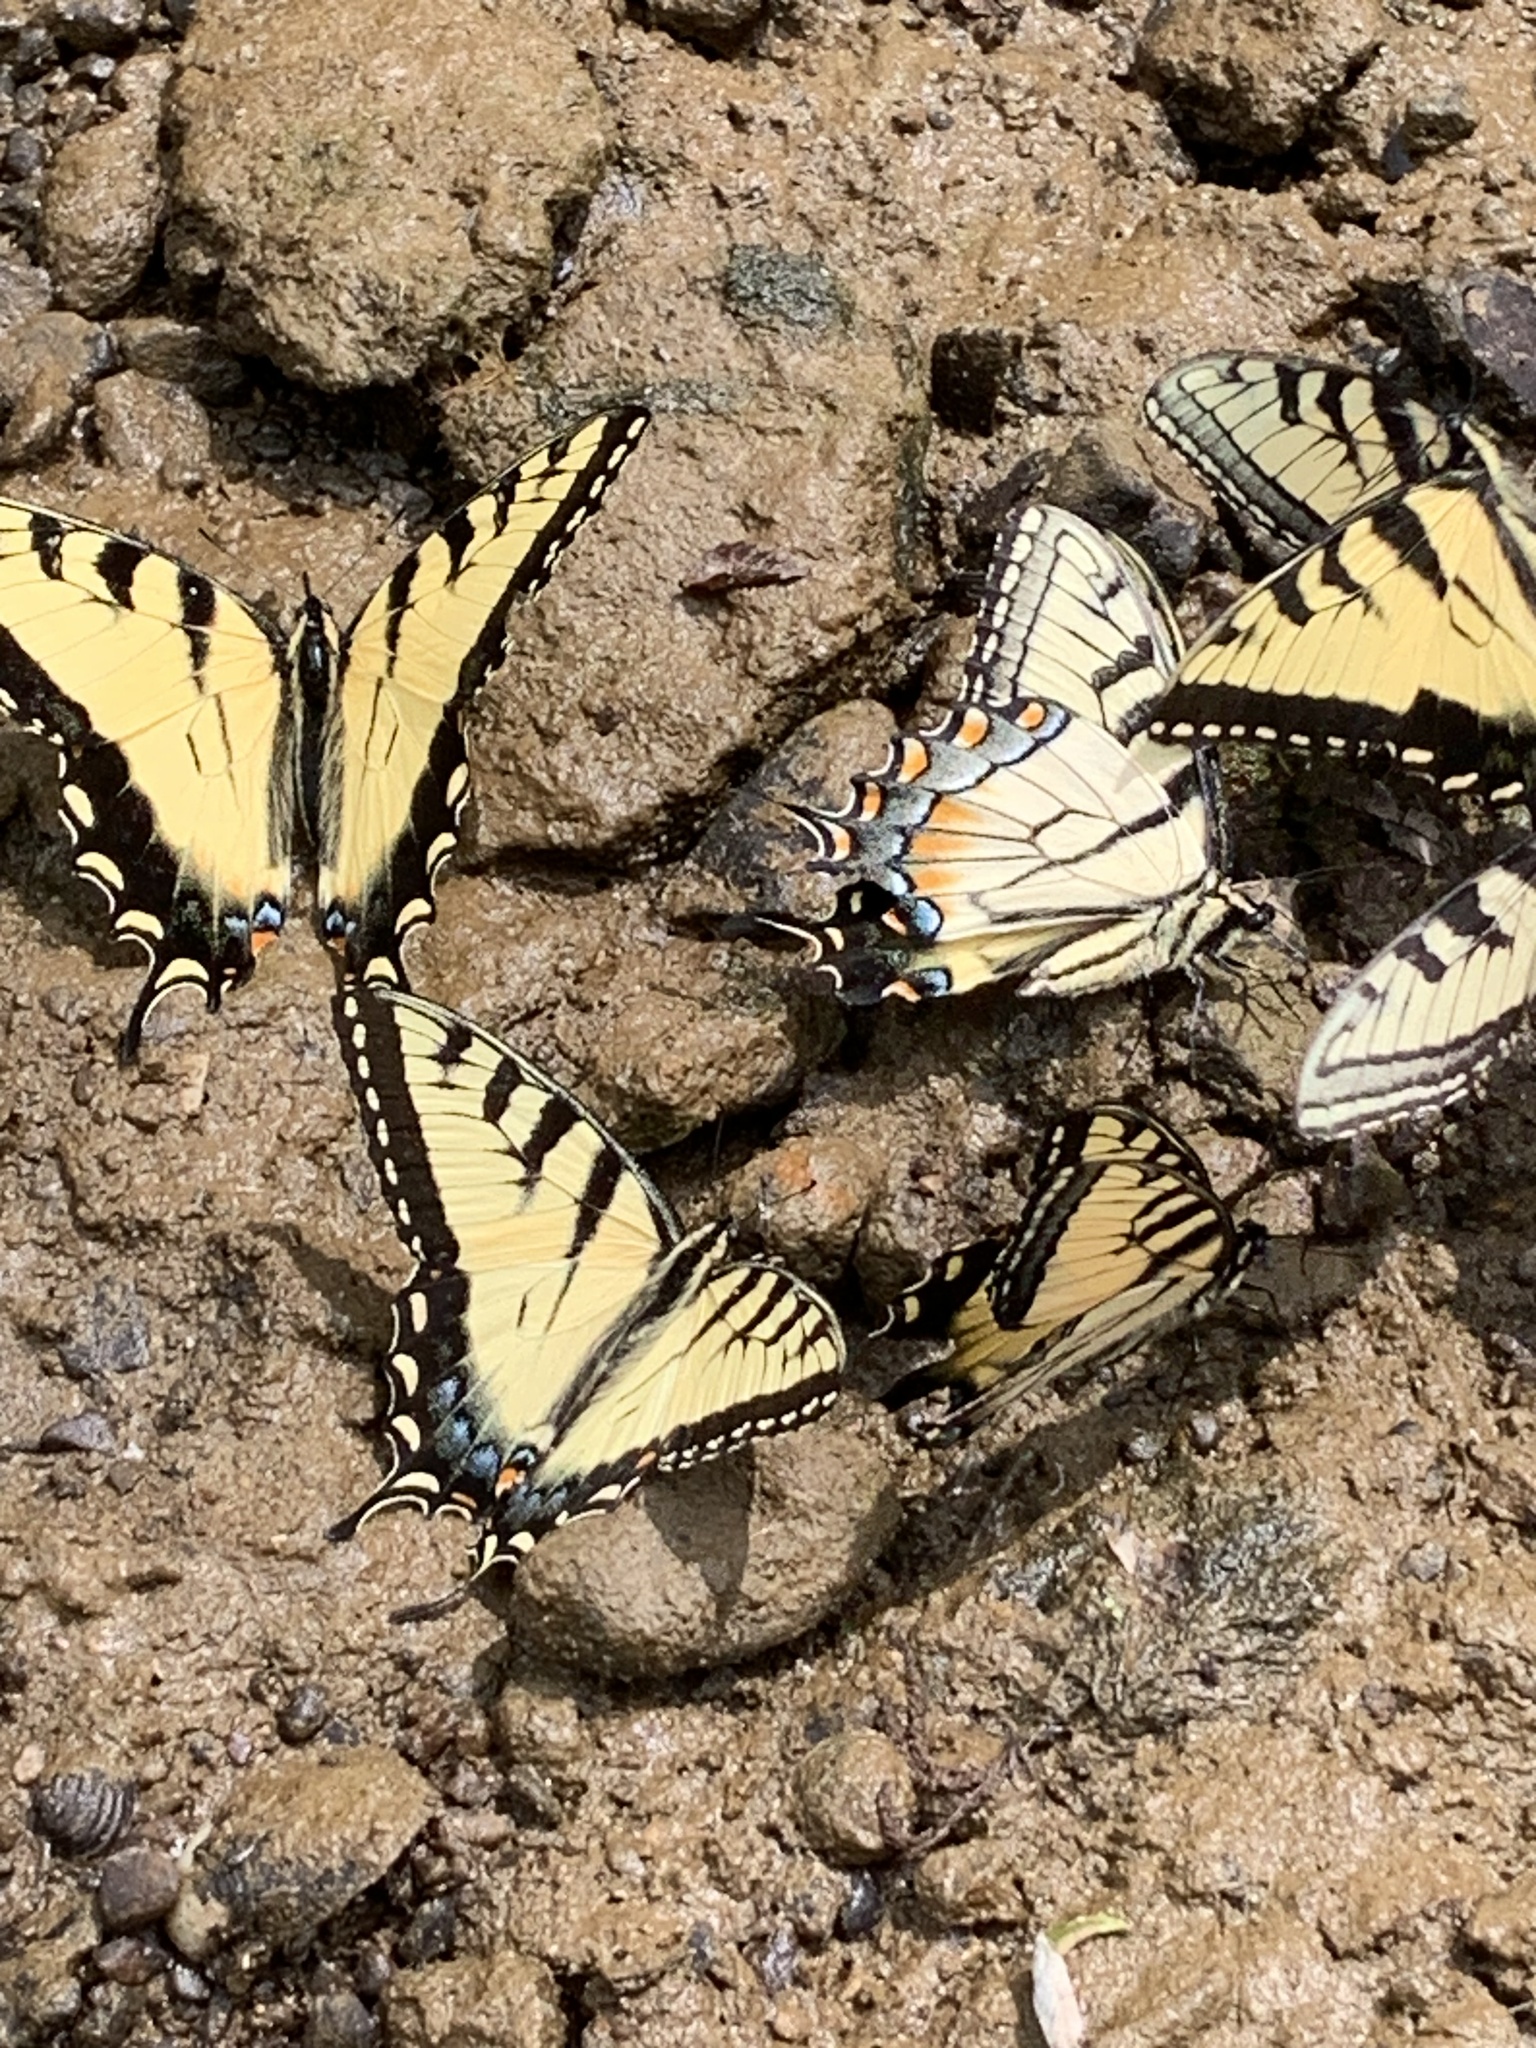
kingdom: Animalia
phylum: Arthropoda
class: Insecta
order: Lepidoptera
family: Papilionidae
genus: Papilio
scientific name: Papilio glaucus
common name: Tiger swallowtail
